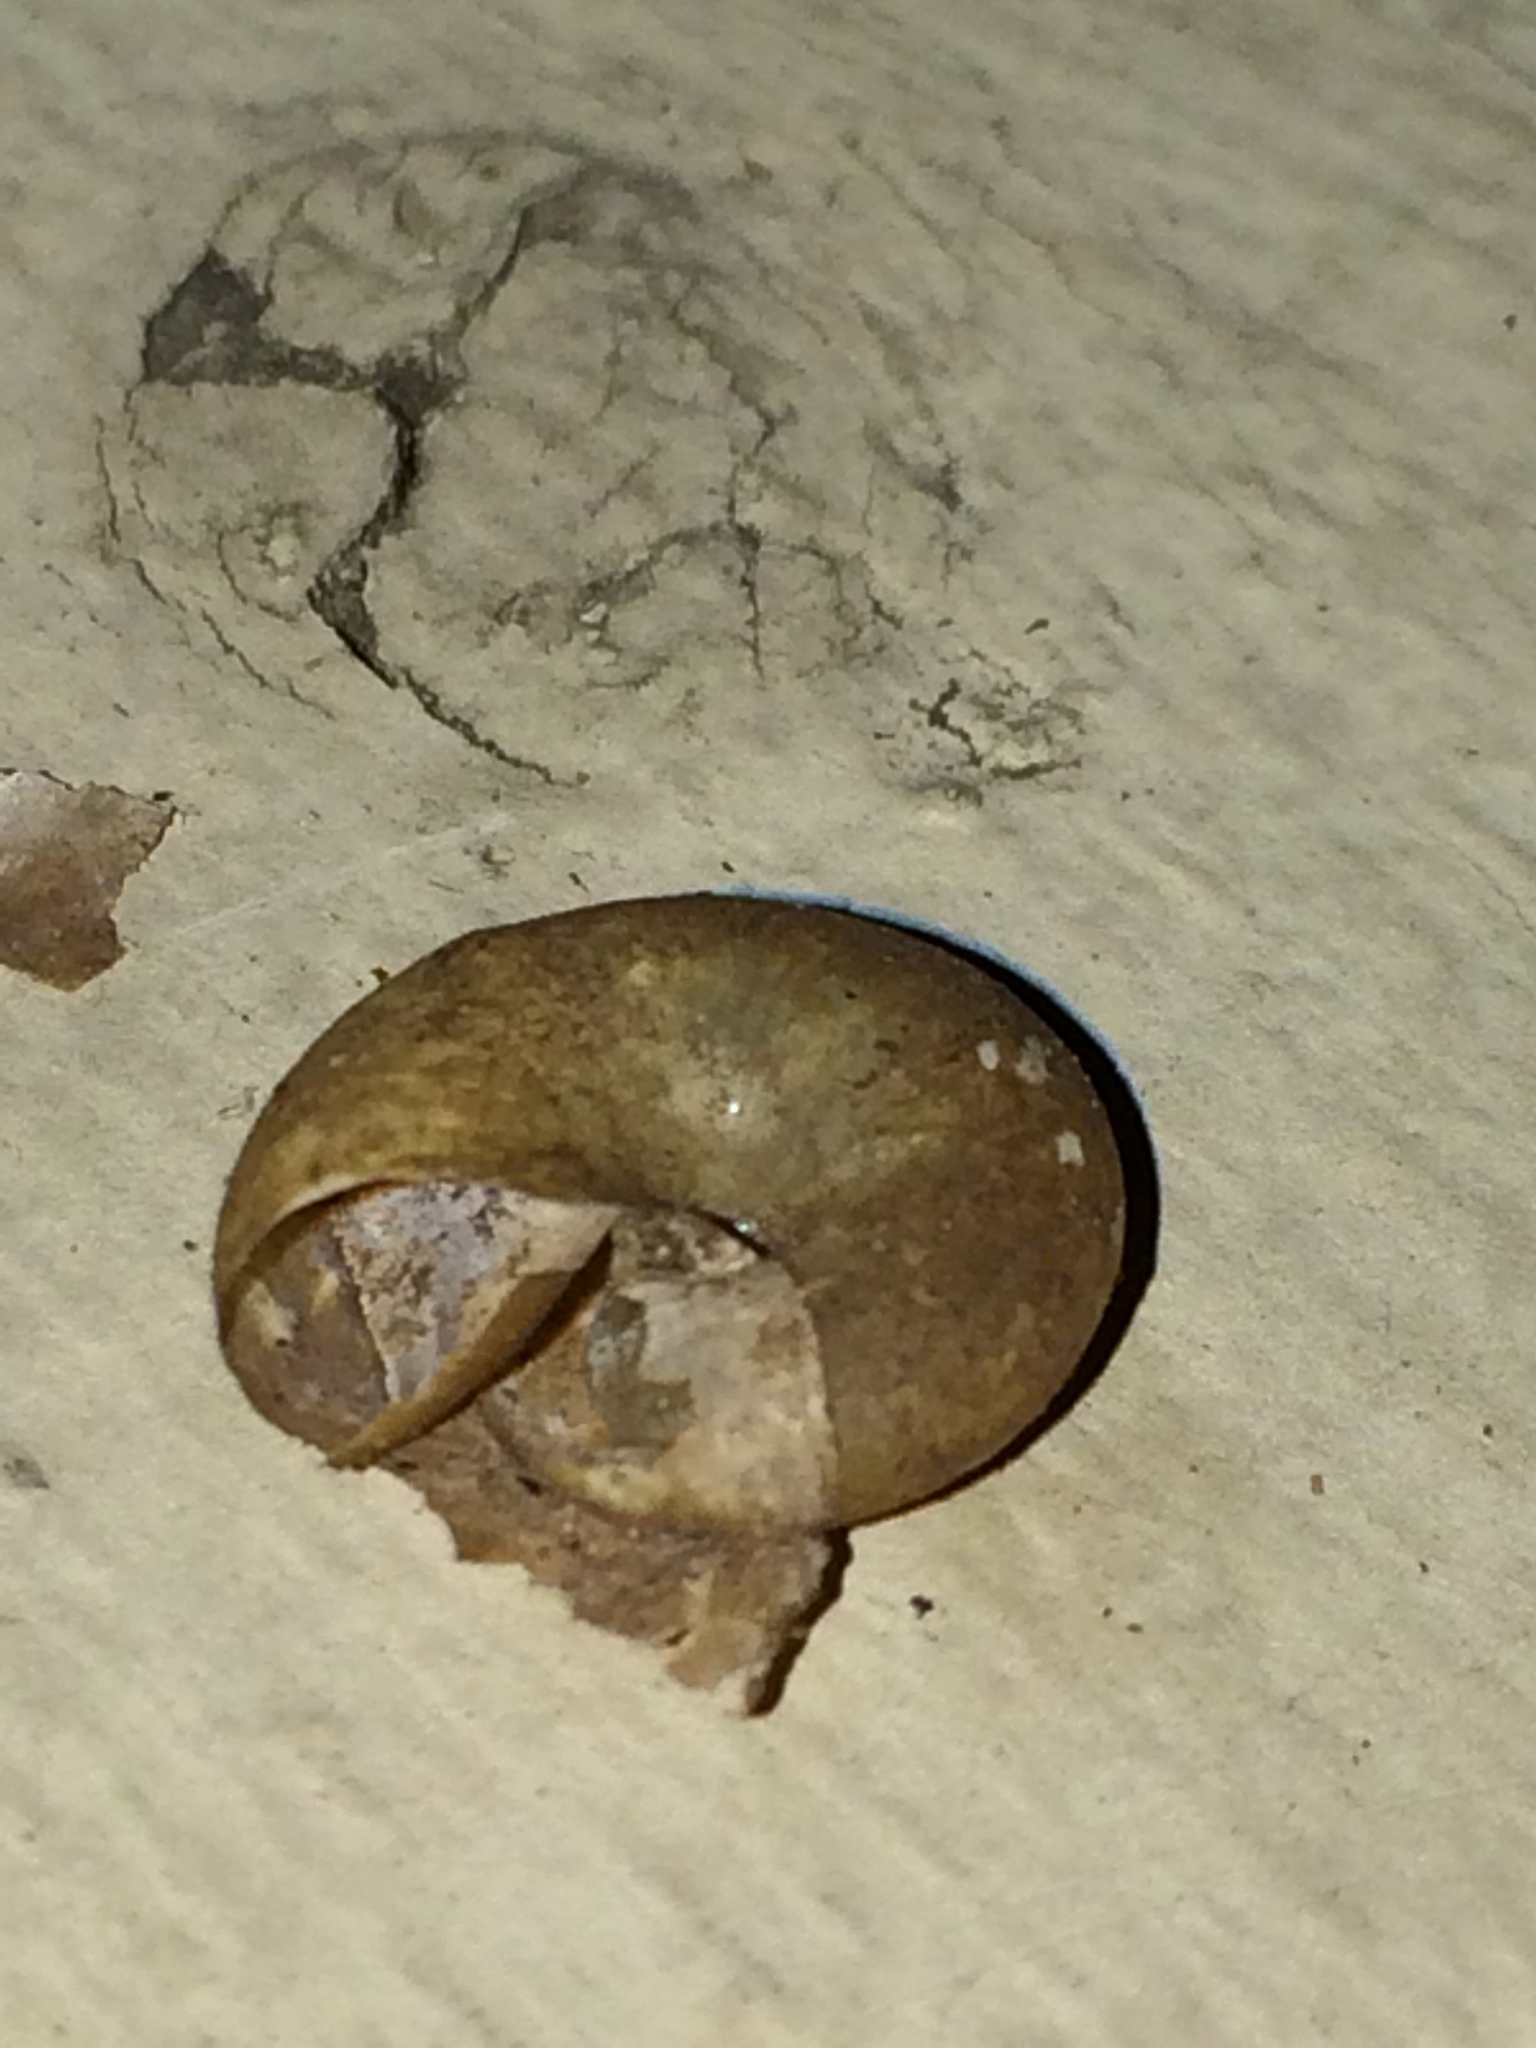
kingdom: Animalia
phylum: Mollusca
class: Gastropoda
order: Stylommatophora
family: Haplotrematidae
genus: Haplotrema
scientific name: Haplotrema vancouverense
